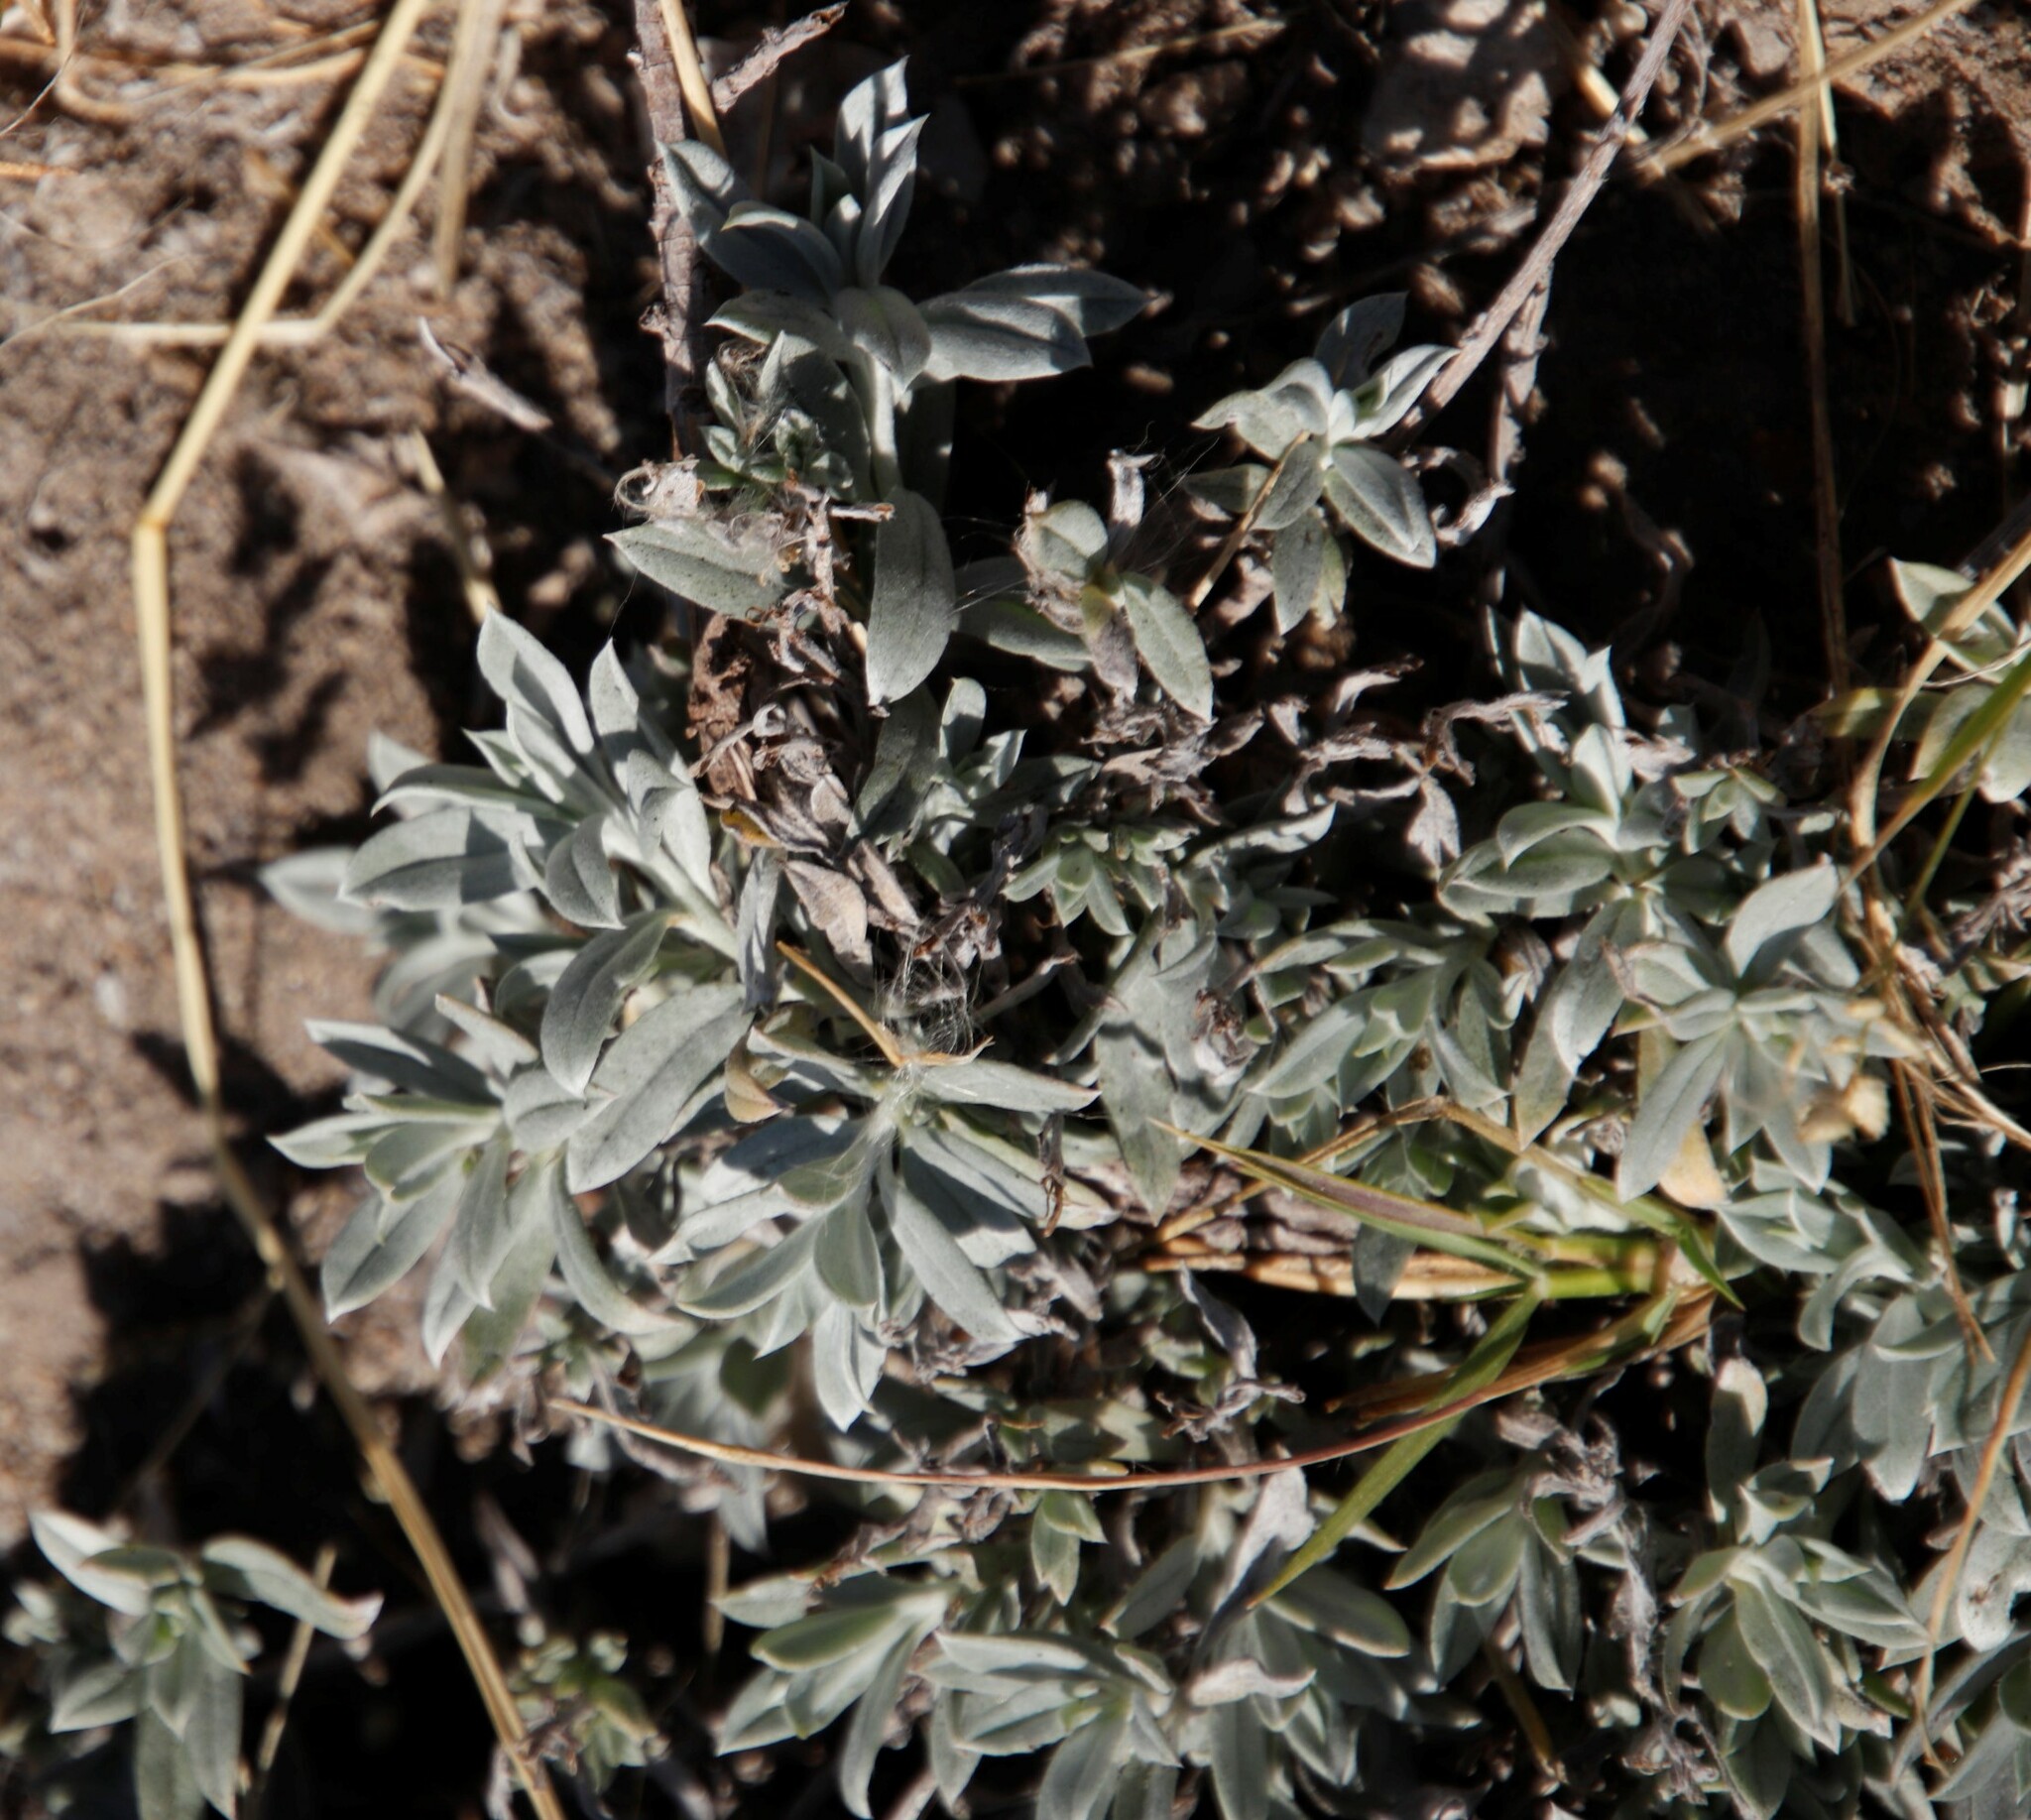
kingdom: Plantae
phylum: Tracheophyta
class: Magnoliopsida
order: Boraginales
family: Heliotropiaceae
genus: Euploca
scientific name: Euploca ovalifolia
